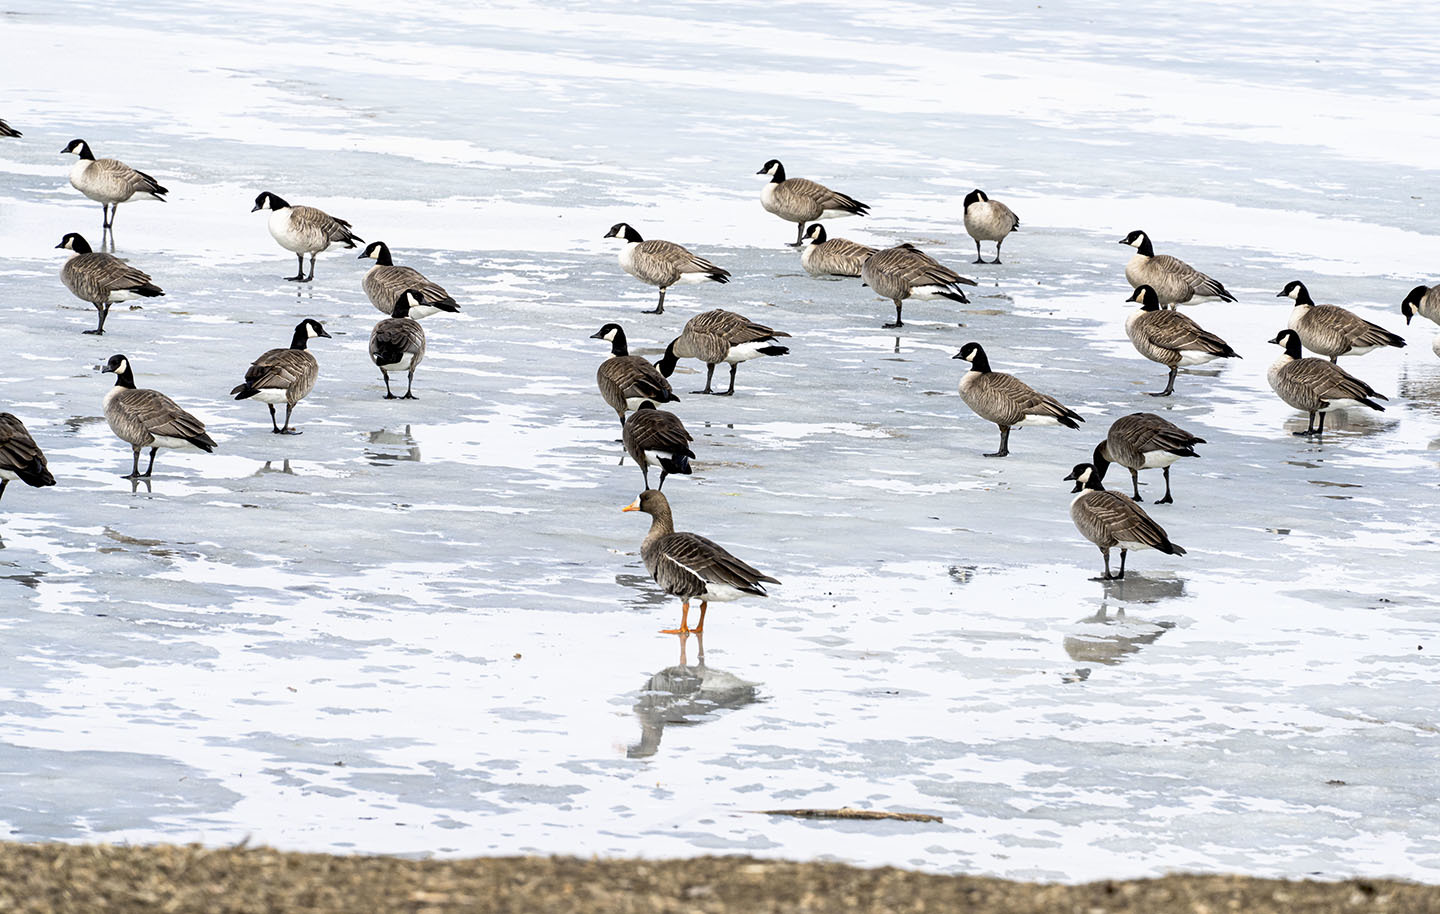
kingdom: Animalia
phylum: Chordata
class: Aves
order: Anseriformes
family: Anatidae
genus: Anser
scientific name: Anser albifrons
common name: Greater white-fronted goose
